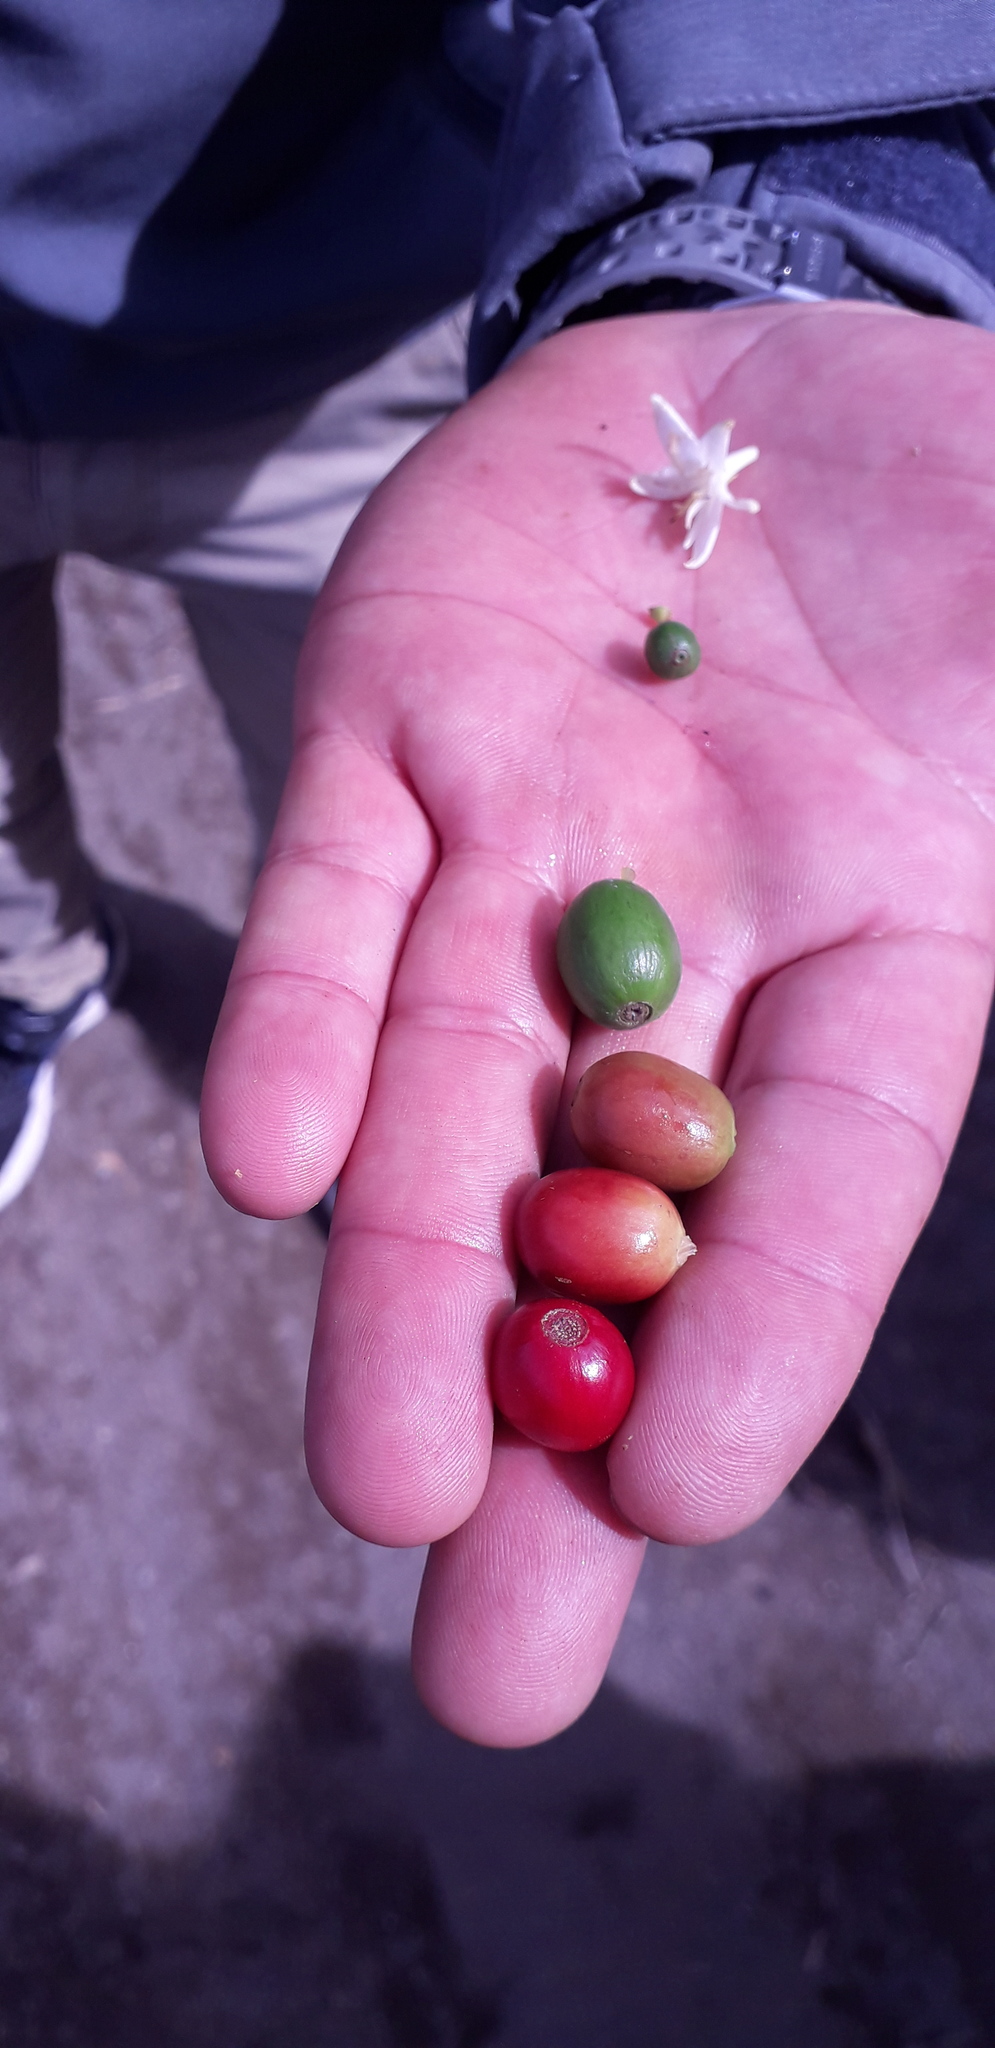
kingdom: Plantae
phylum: Tracheophyta
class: Magnoliopsida
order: Gentianales
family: Rubiaceae
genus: Coffea
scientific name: Coffea arabica
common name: Coffee
